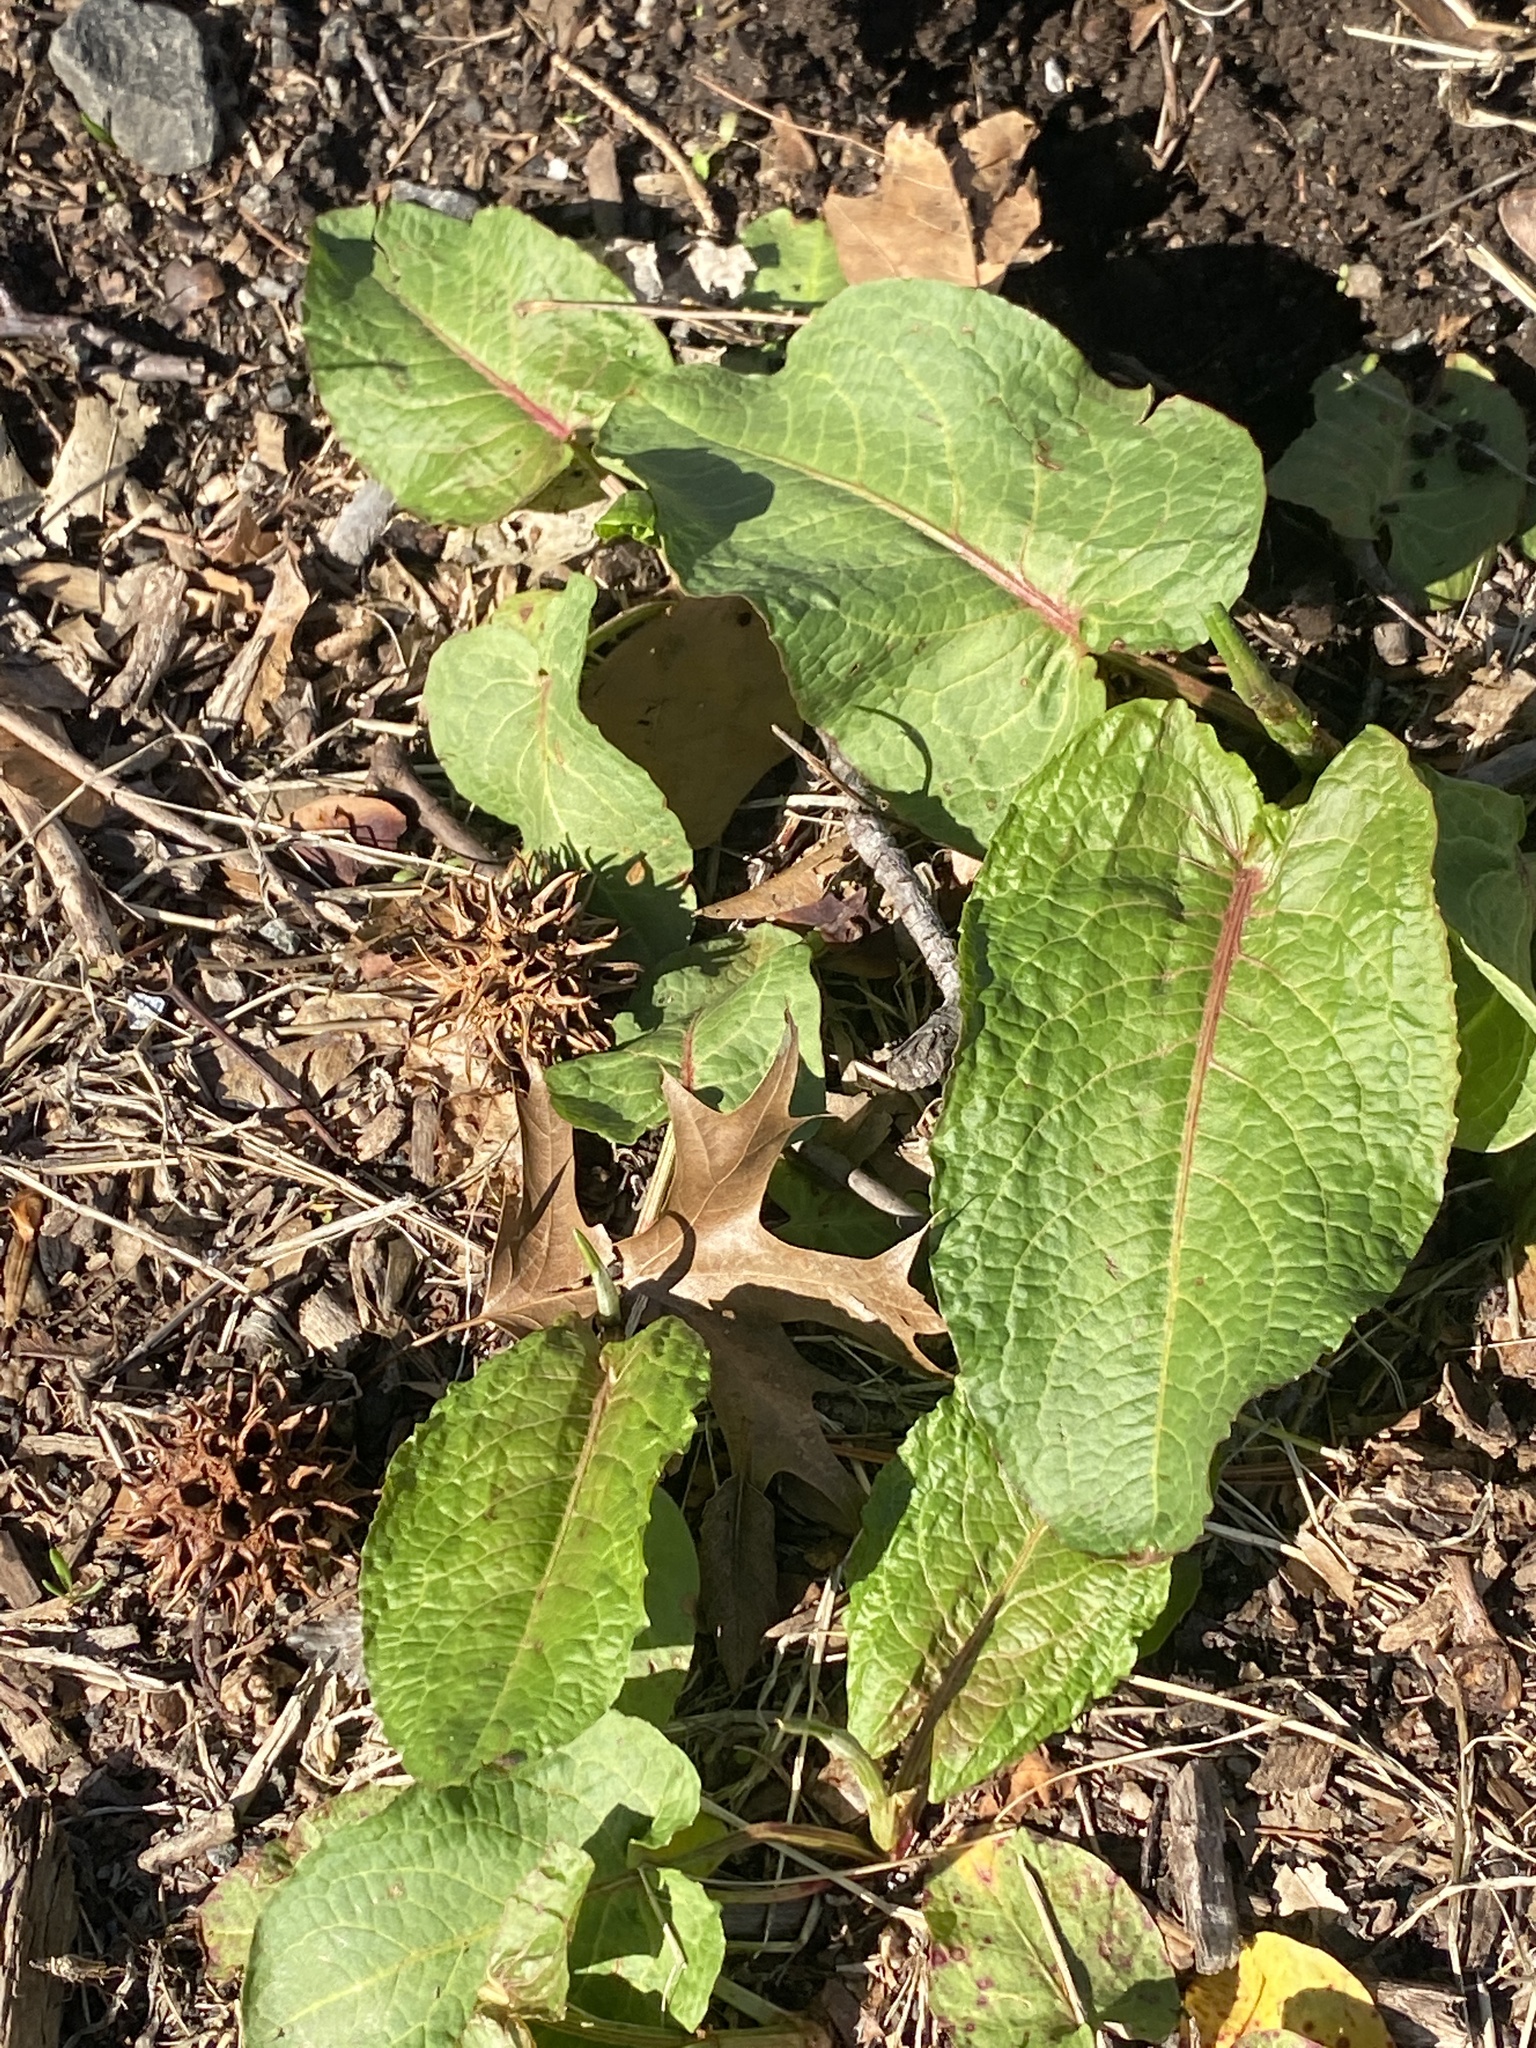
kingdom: Plantae
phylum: Tracheophyta
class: Magnoliopsida
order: Caryophyllales
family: Polygonaceae
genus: Rumex
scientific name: Rumex obtusifolius
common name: Bitter dock
